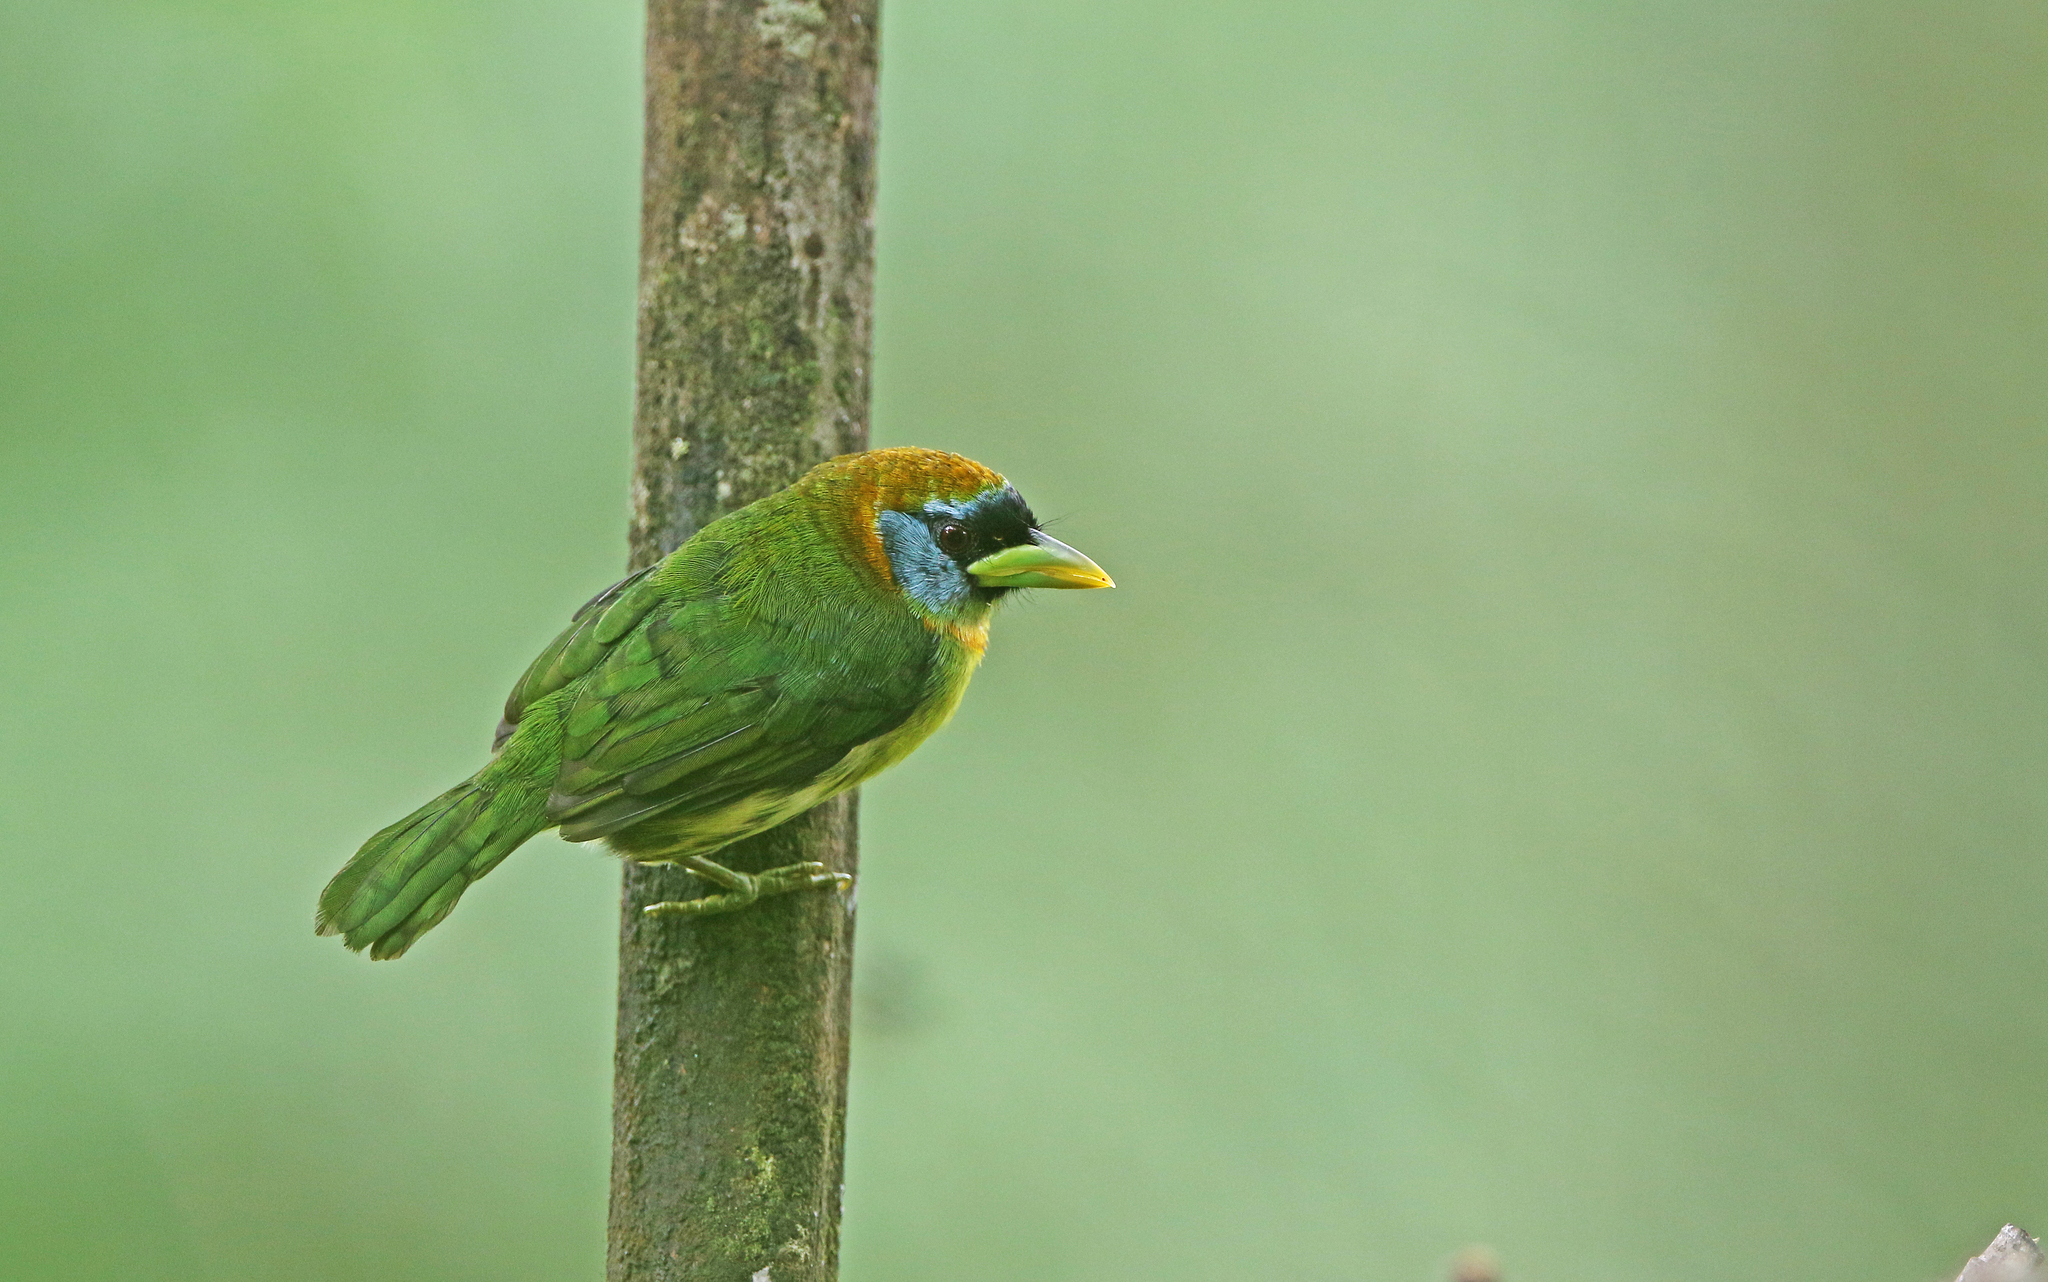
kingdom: Animalia
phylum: Chordata
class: Aves
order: Piciformes
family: Capitonidae
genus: Eubucco
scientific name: Eubucco bourcierii
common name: Red-headed barbet
